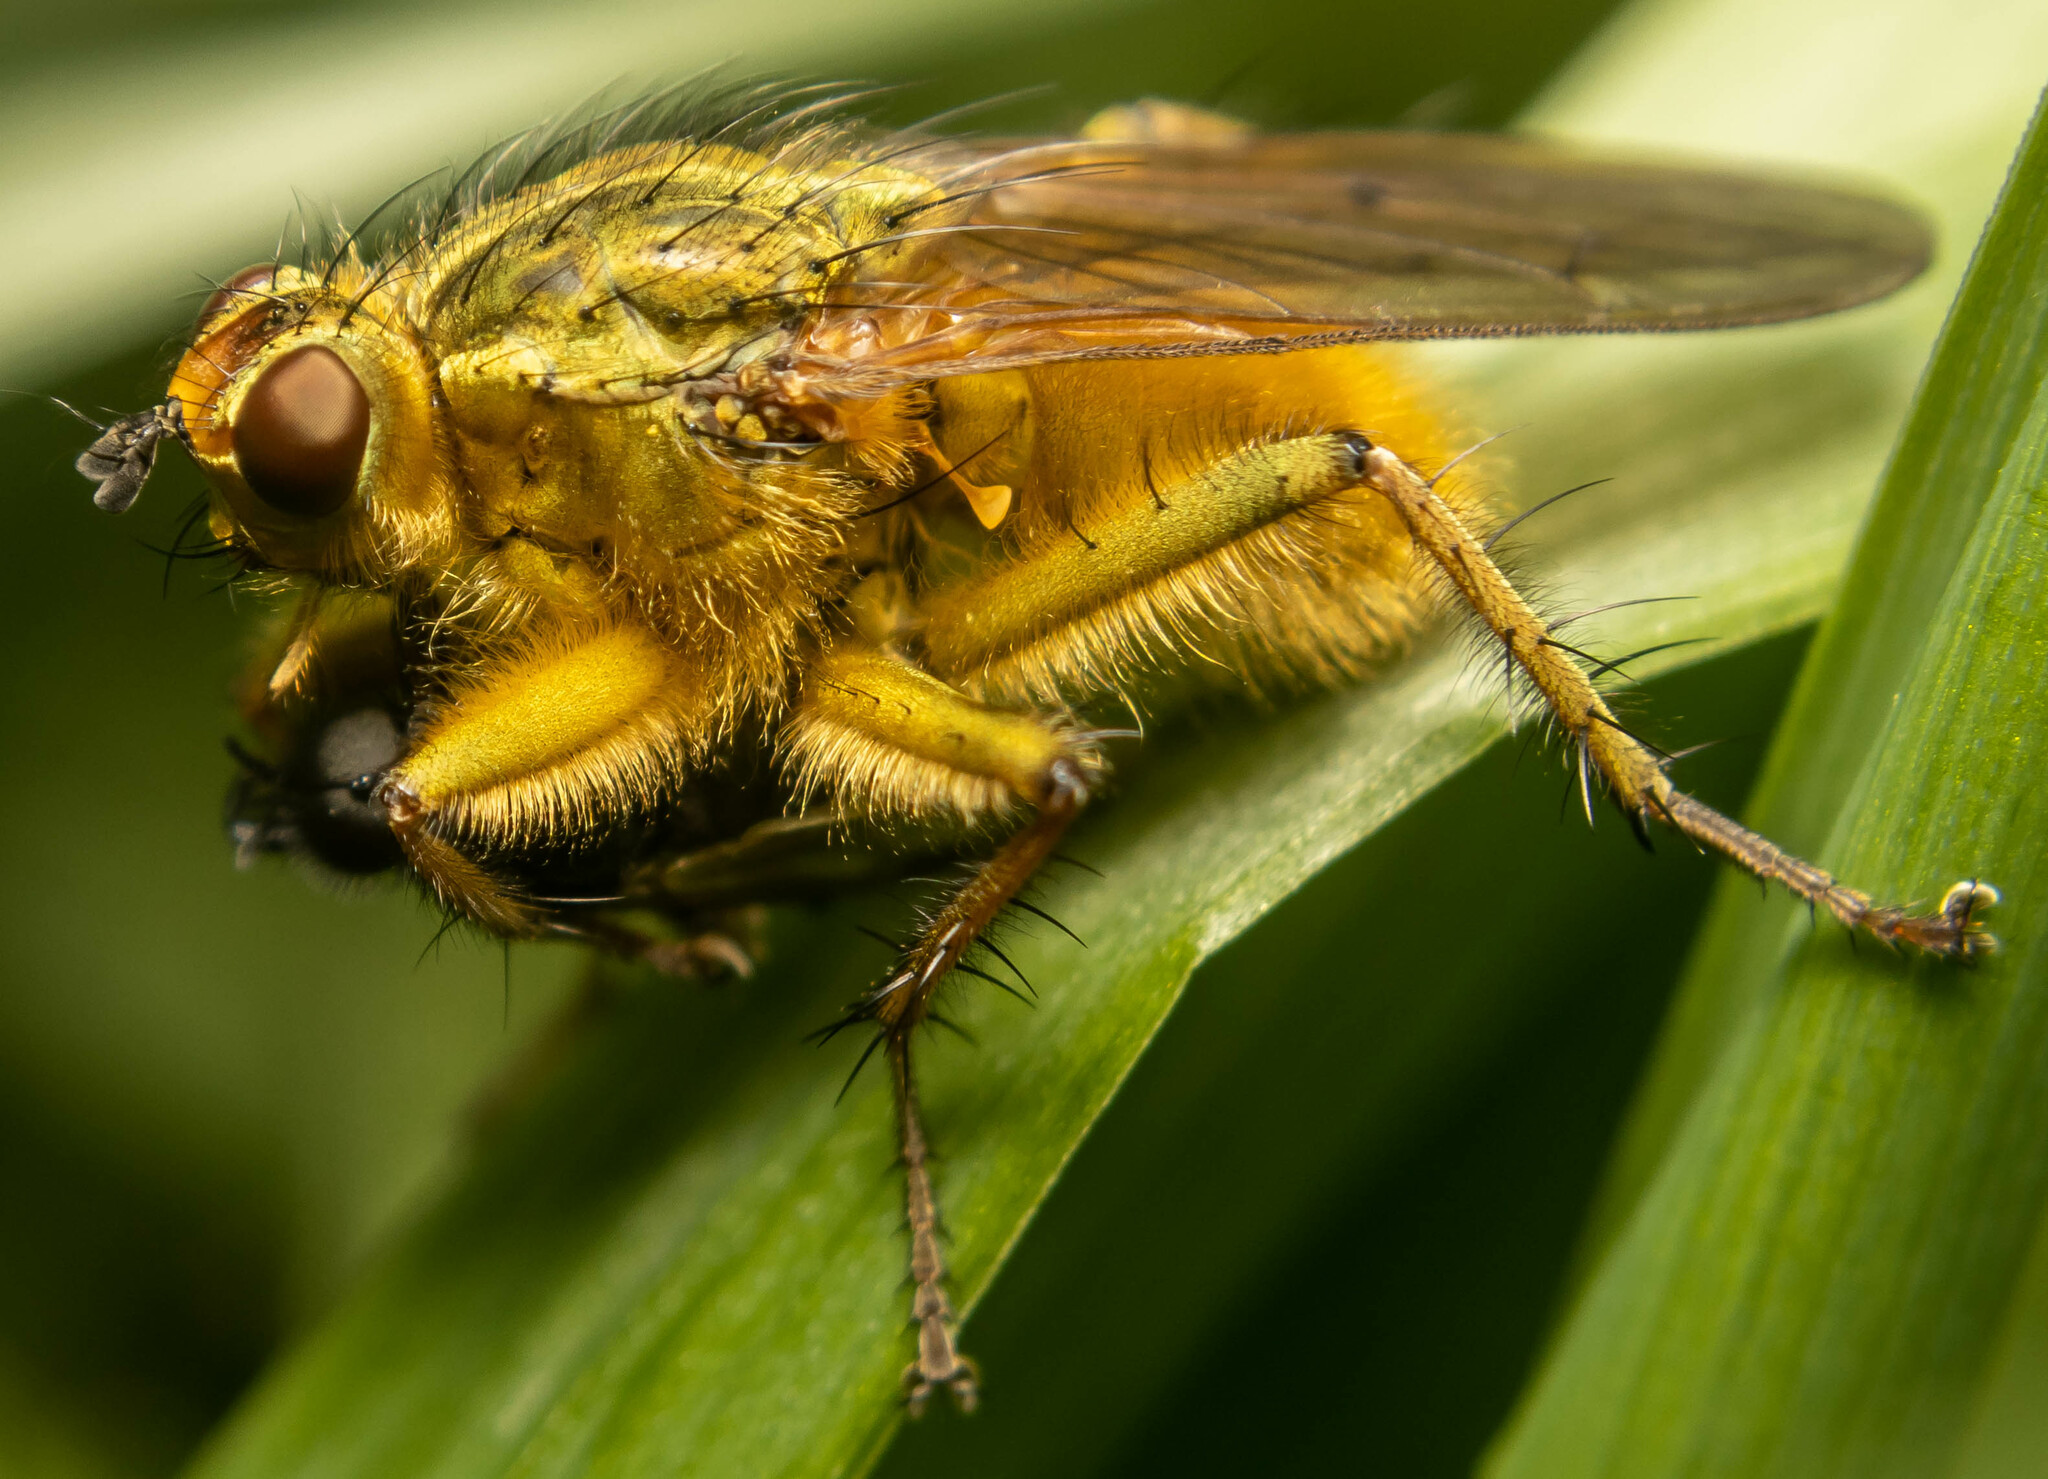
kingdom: Animalia
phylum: Arthropoda
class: Insecta
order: Diptera
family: Scathophagidae
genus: Scathophaga
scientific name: Scathophaga stercoraria
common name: Yellow dung fly
